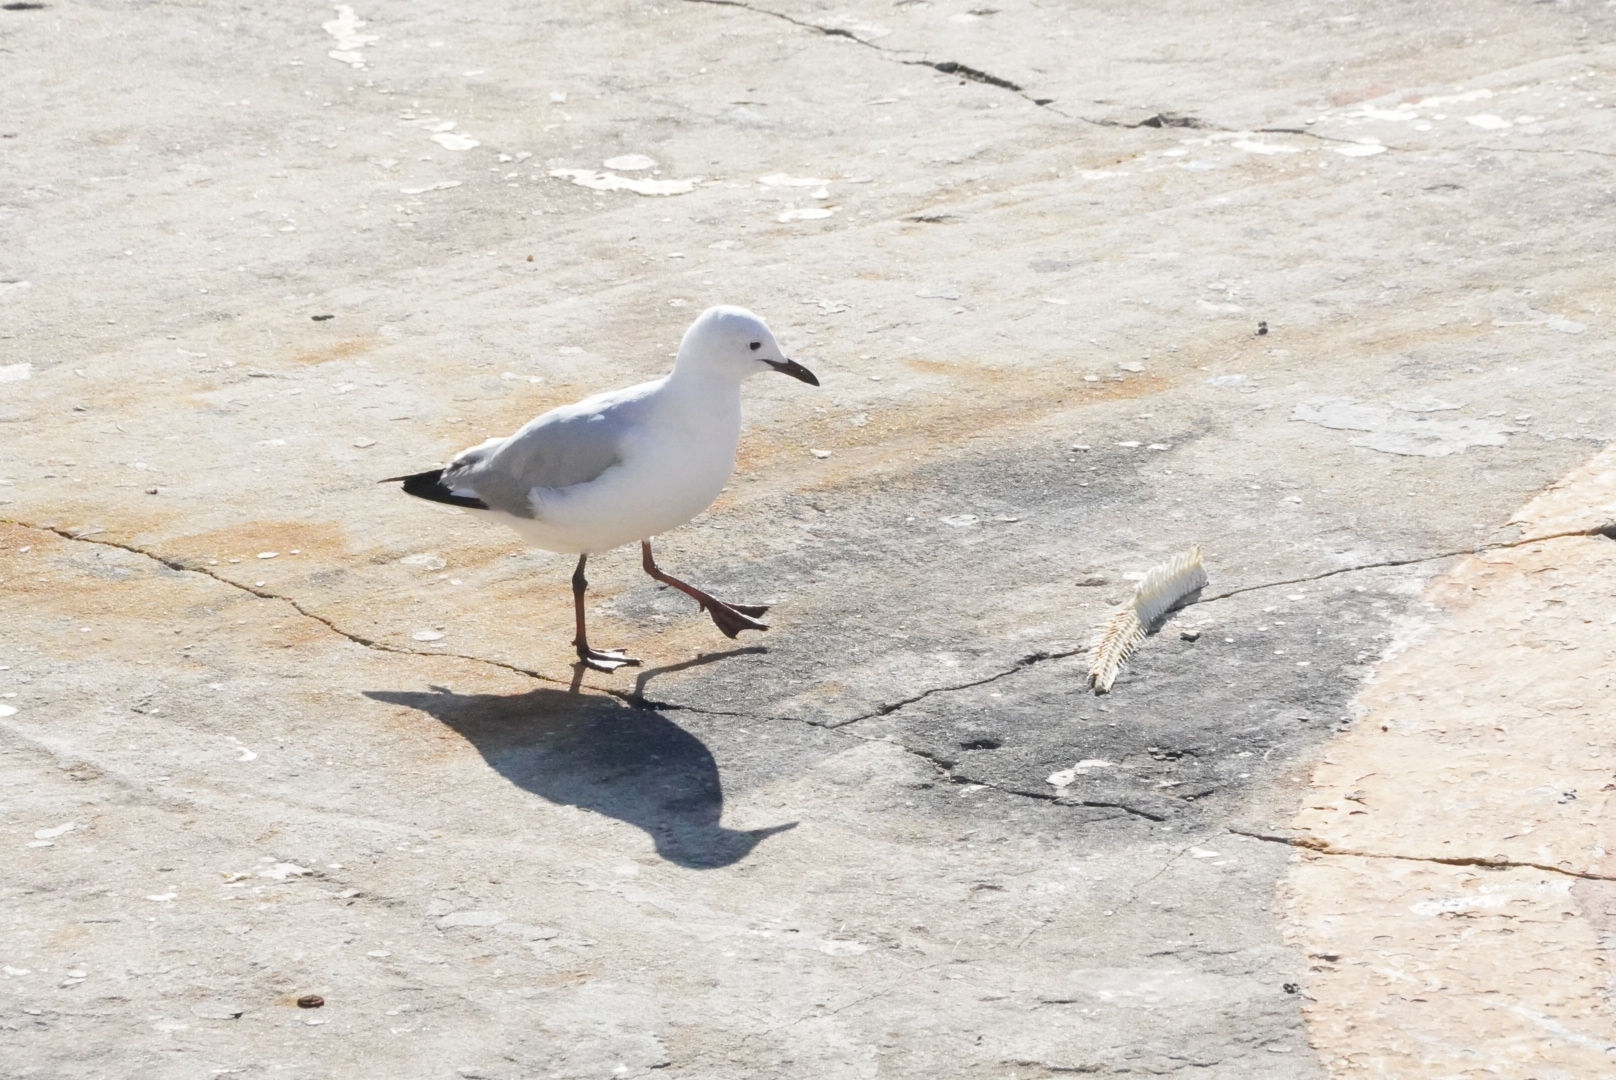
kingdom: Animalia
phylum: Chordata
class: Aves
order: Charadriiformes
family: Laridae
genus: Chroicocephalus
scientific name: Chroicocephalus hartlaubii
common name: Hartlaub's gull
